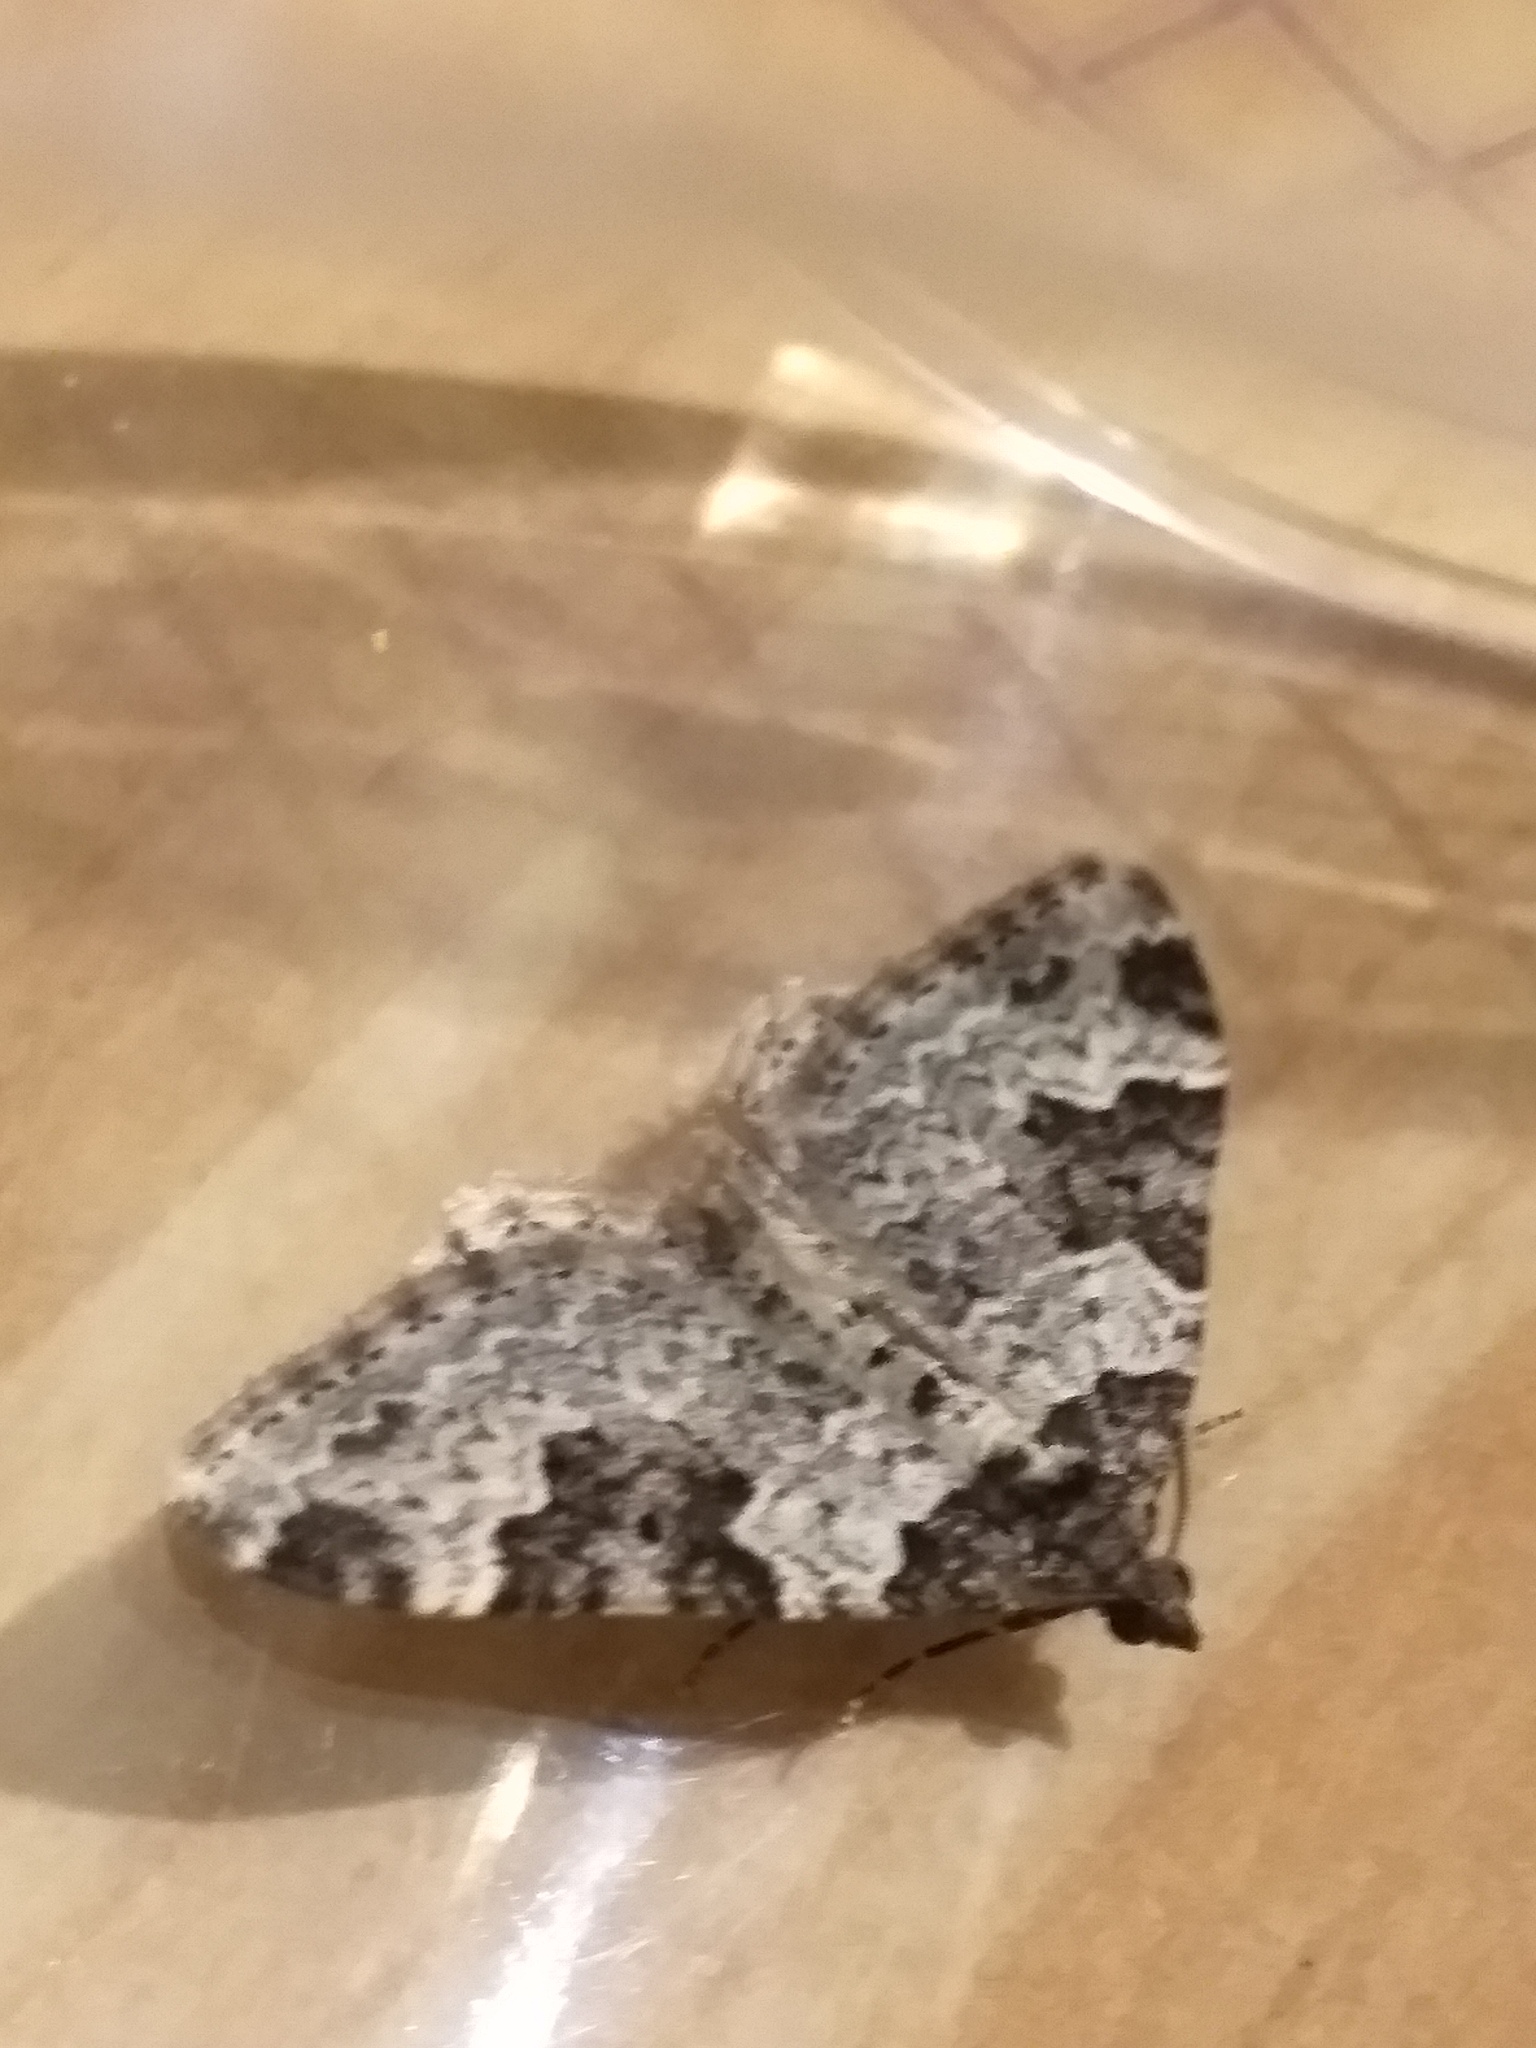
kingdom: Animalia
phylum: Arthropoda
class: Insecta
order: Lepidoptera
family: Geometridae
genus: Xanthorhoe
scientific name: Xanthorhoe fluctuata
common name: Garden carpet
